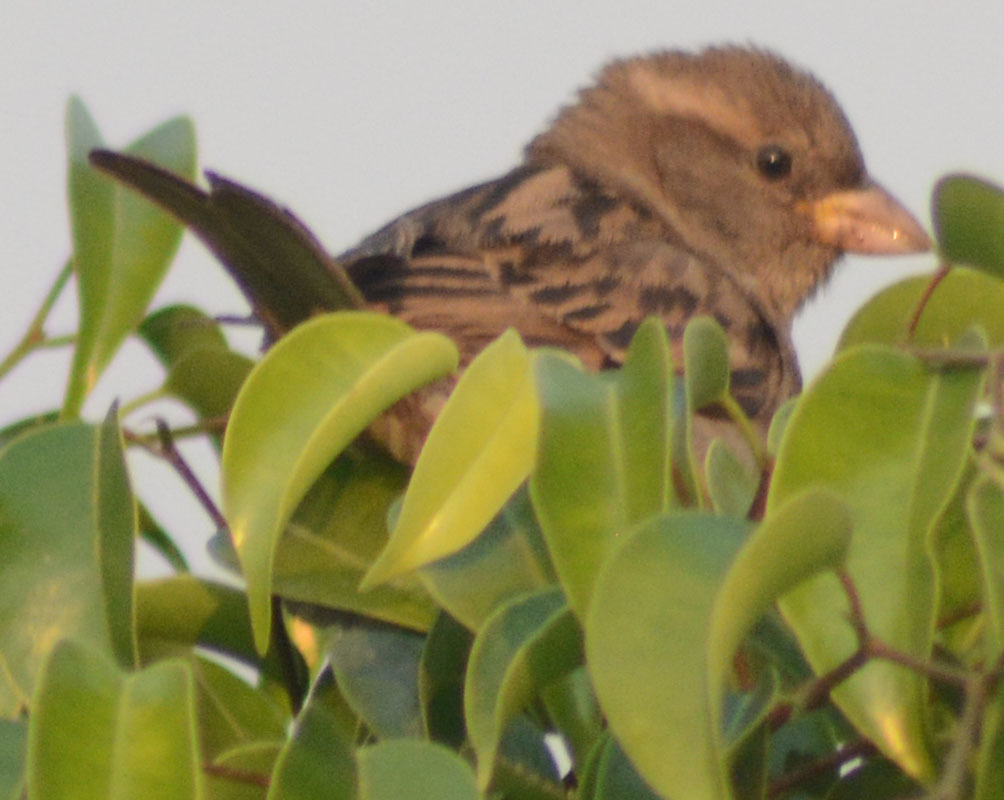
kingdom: Animalia
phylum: Chordata
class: Aves
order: Passeriformes
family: Passeridae
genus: Passer
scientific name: Passer domesticus
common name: House sparrow
